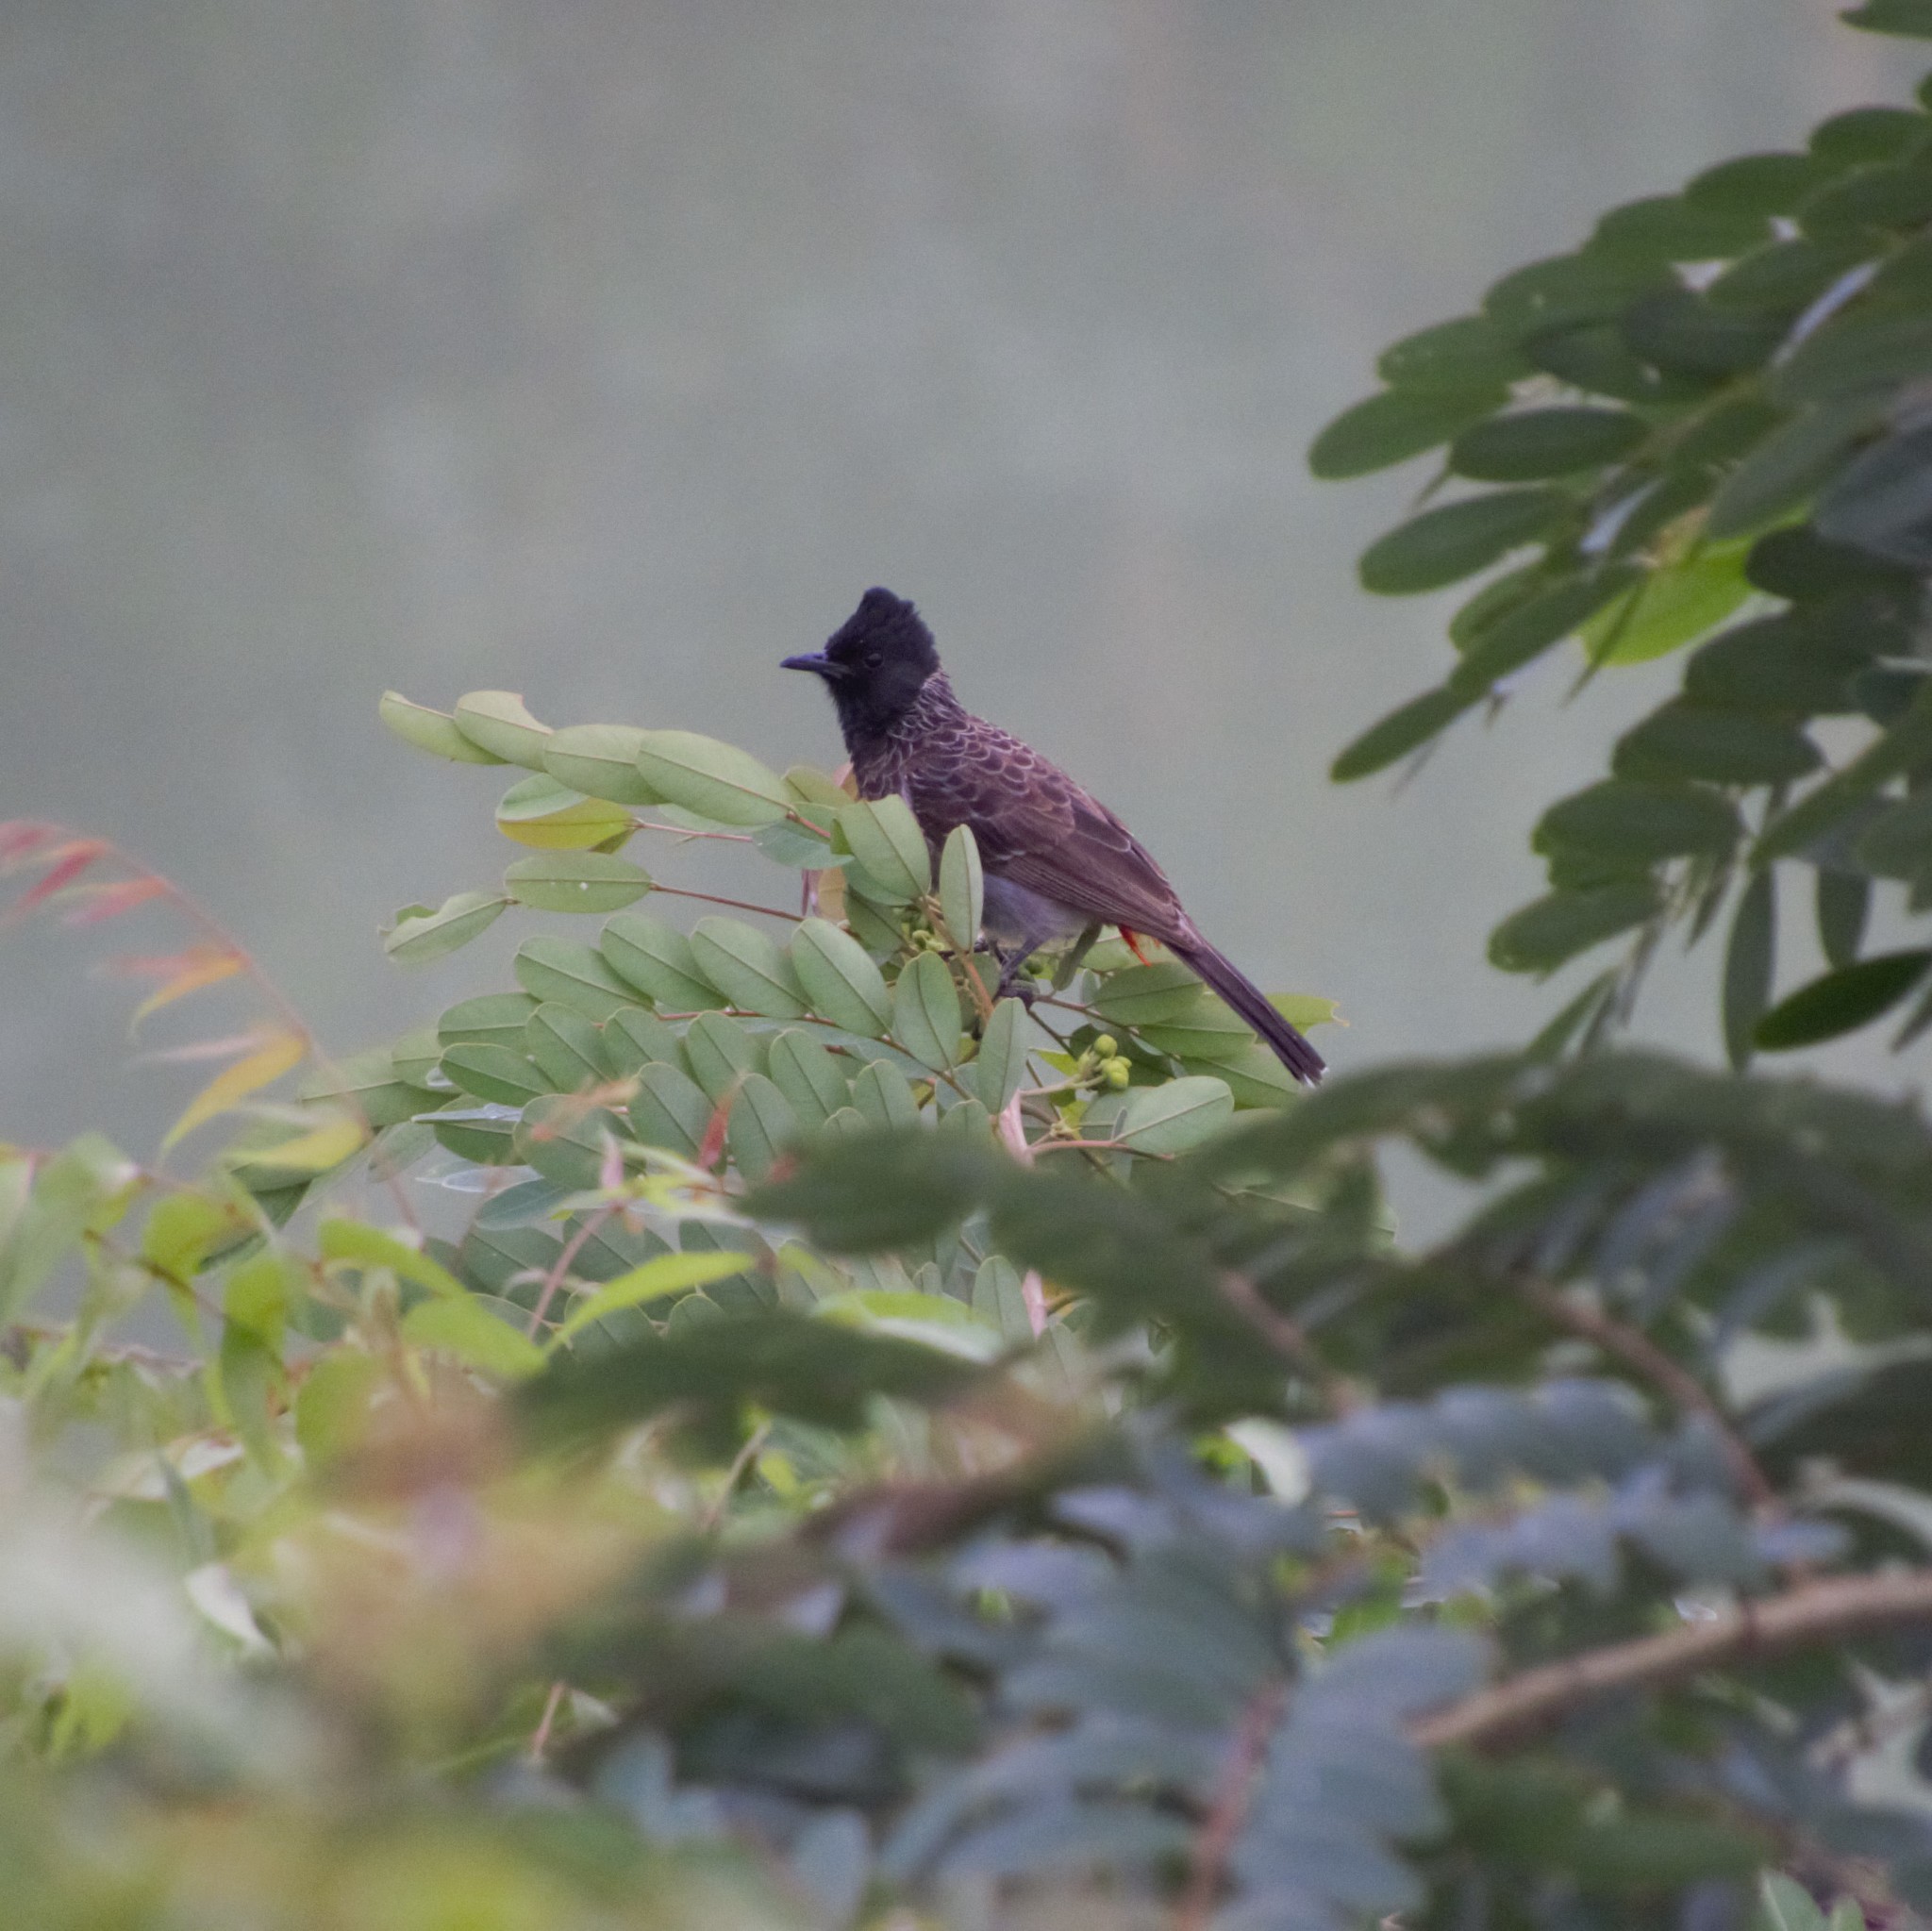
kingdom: Animalia
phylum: Chordata
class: Aves
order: Passeriformes
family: Pycnonotidae
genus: Pycnonotus
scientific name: Pycnonotus cafer
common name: Red-vented bulbul
